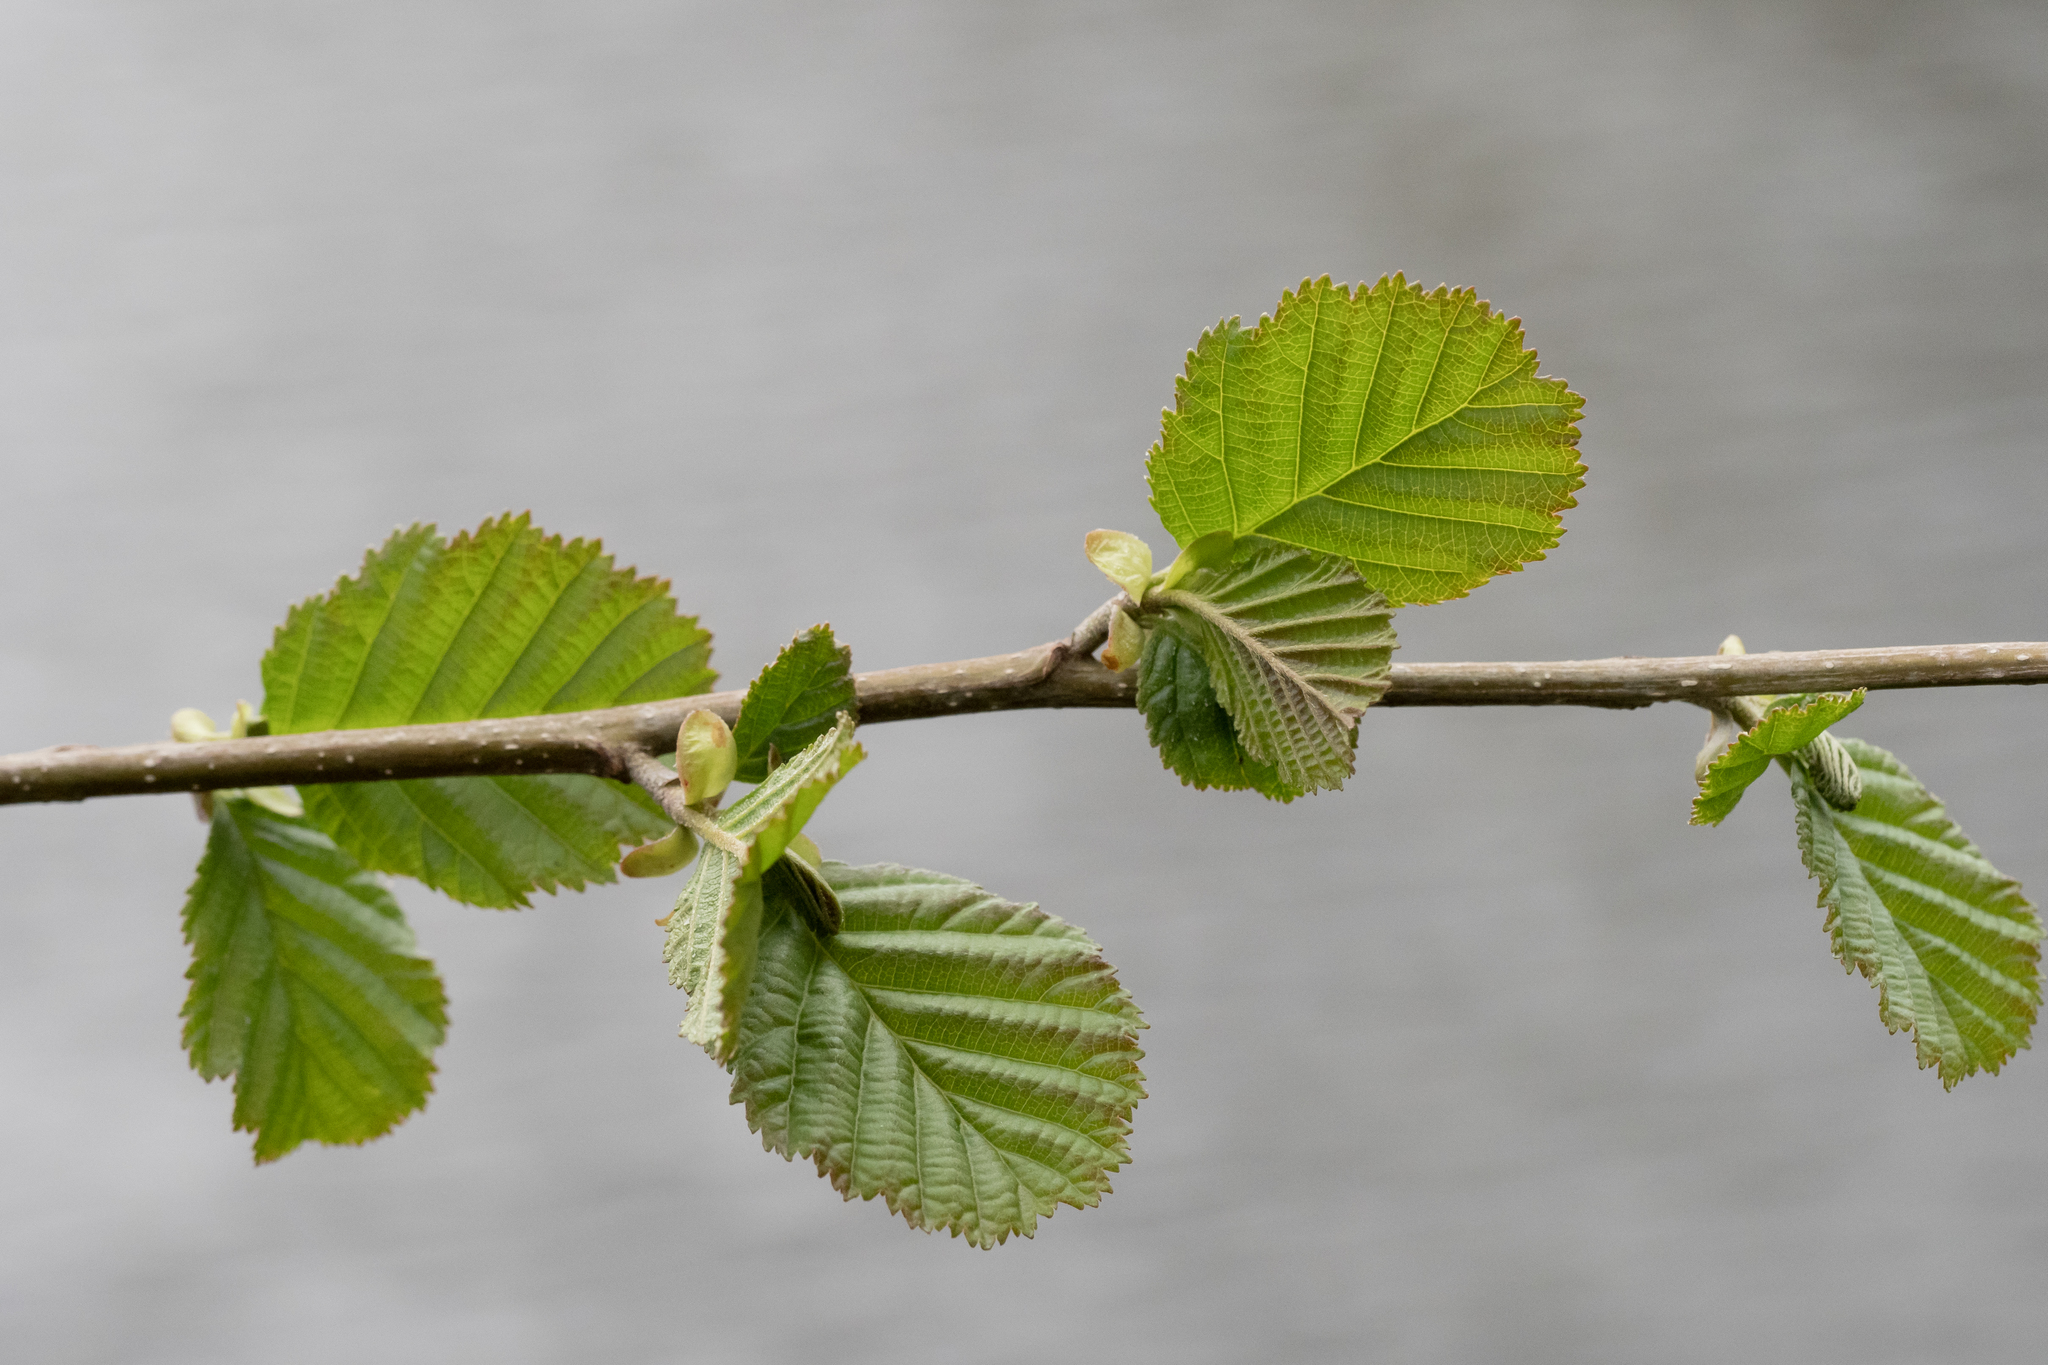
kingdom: Plantae
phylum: Tracheophyta
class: Magnoliopsida
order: Fagales
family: Betulaceae
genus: Alnus
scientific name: Alnus glutinosa
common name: Black alder
